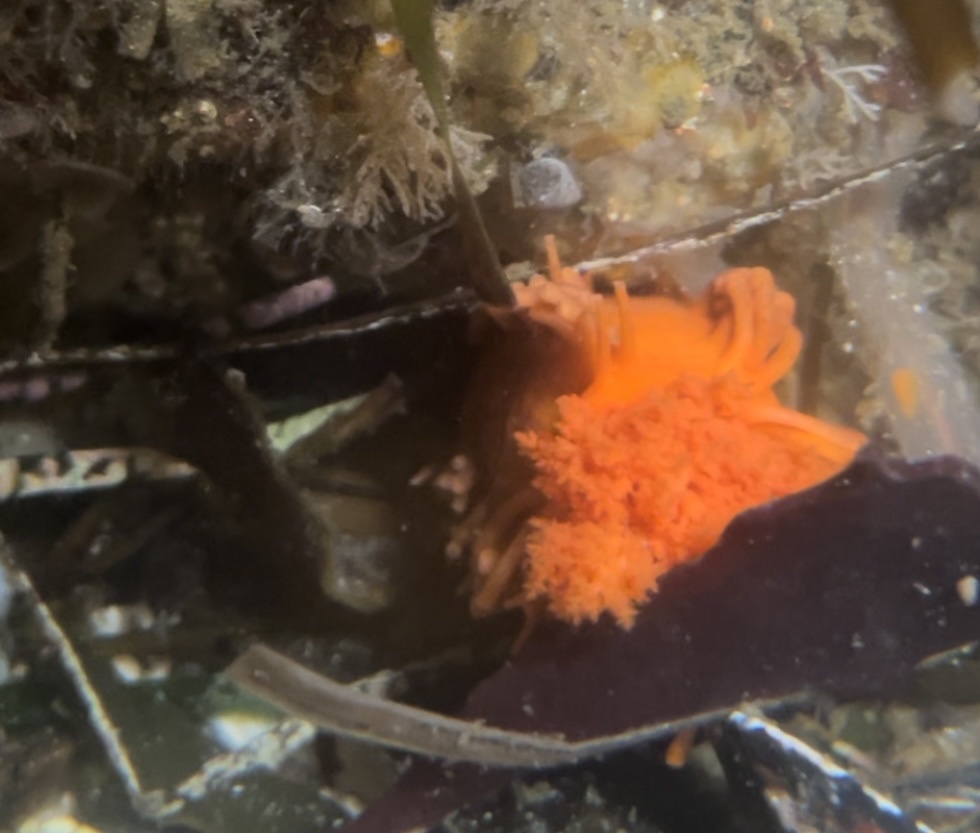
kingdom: Animalia
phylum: Echinodermata
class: Holothuroidea
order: Dendrochirotida
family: Cucumariidae
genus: Cucumaria
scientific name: Cucumaria miniata
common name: Orange sea cucumber
